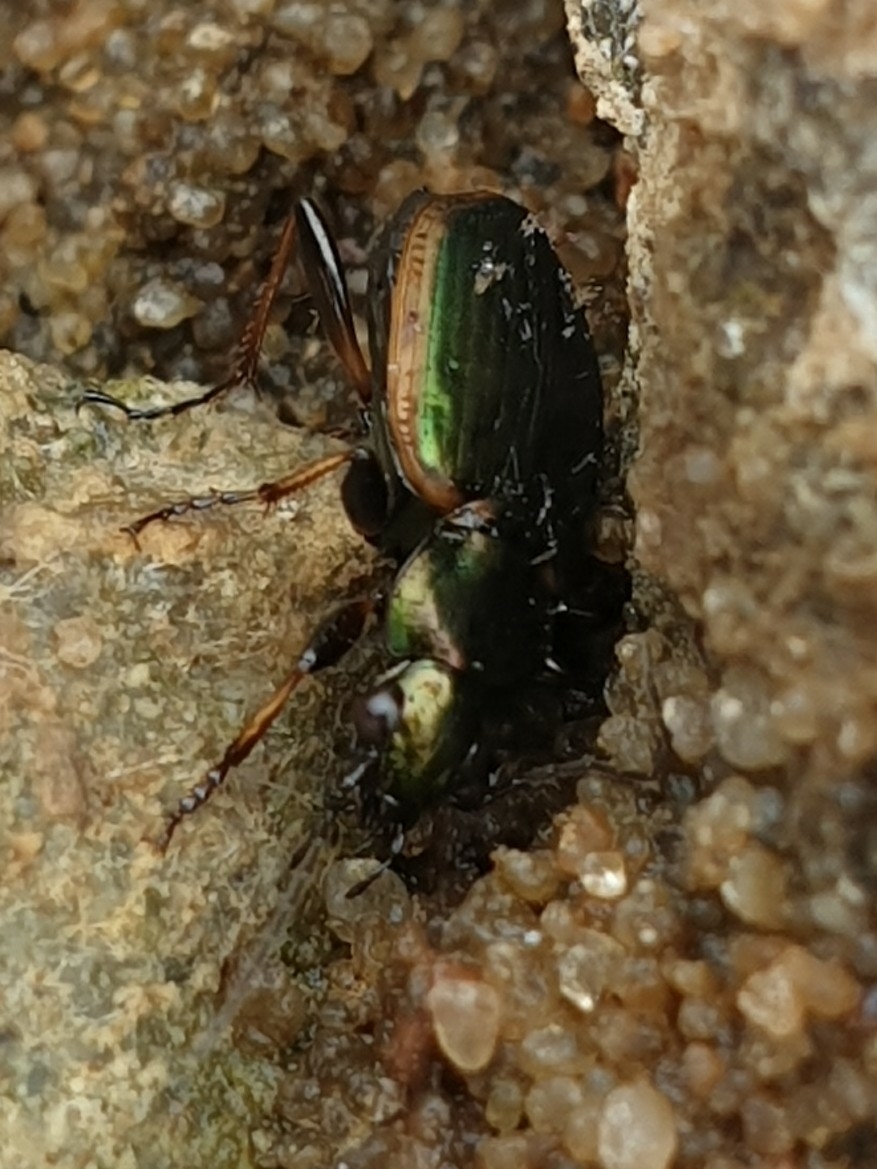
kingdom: Animalia
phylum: Arthropoda
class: Insecta
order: Coleoptera
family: Carabidae
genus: Agonum
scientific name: Agonum marginatum
